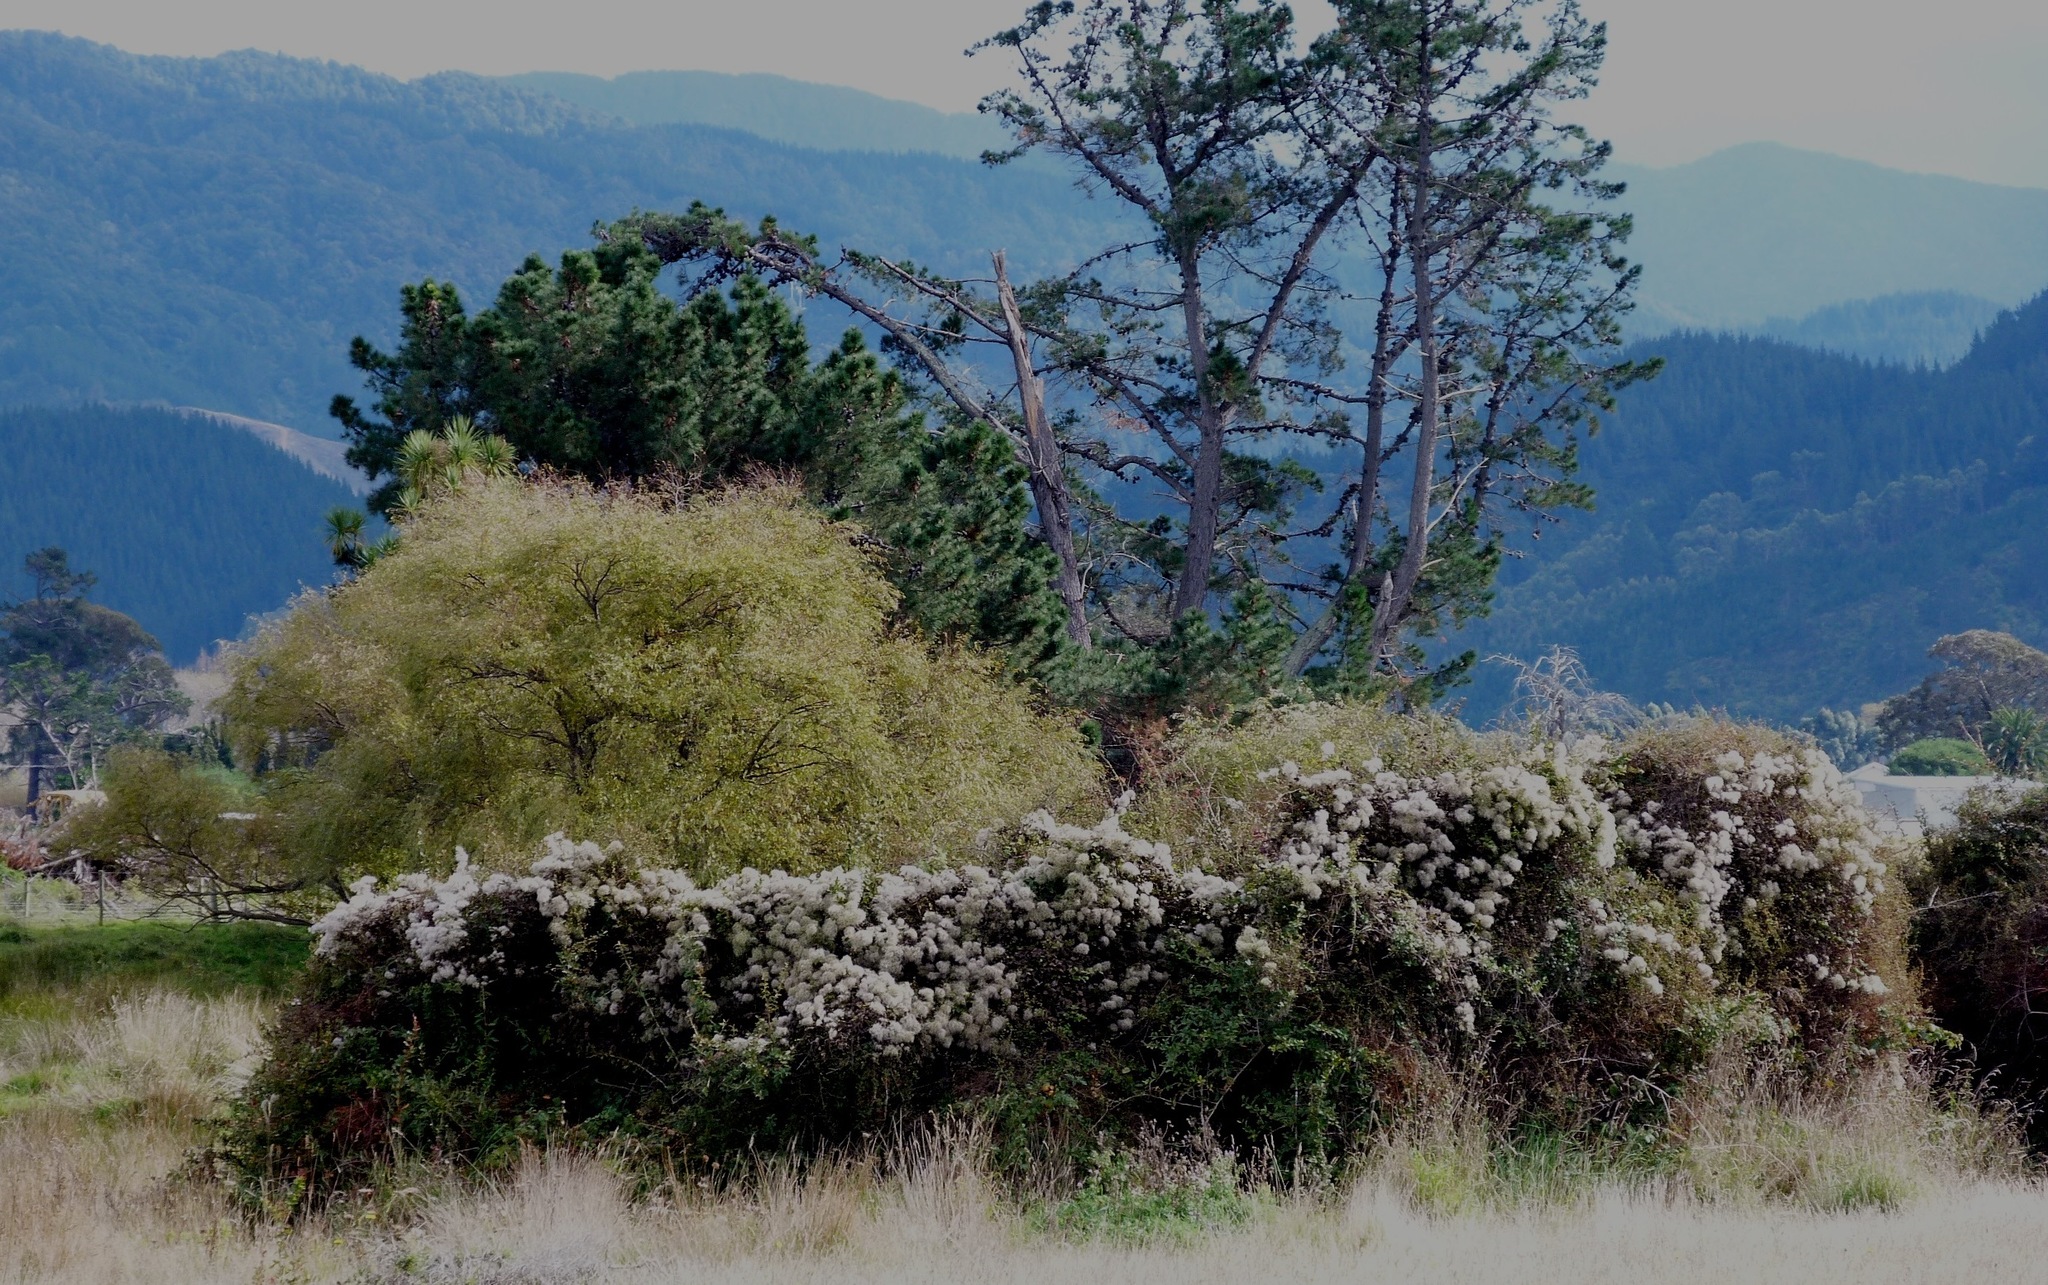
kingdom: Plantae
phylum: Tracheophyta
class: Magnoliopsida
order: Ranunculales
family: Ranunculaceae
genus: Clematis
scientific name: Clematis vitalba
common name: Evergreen clematis
